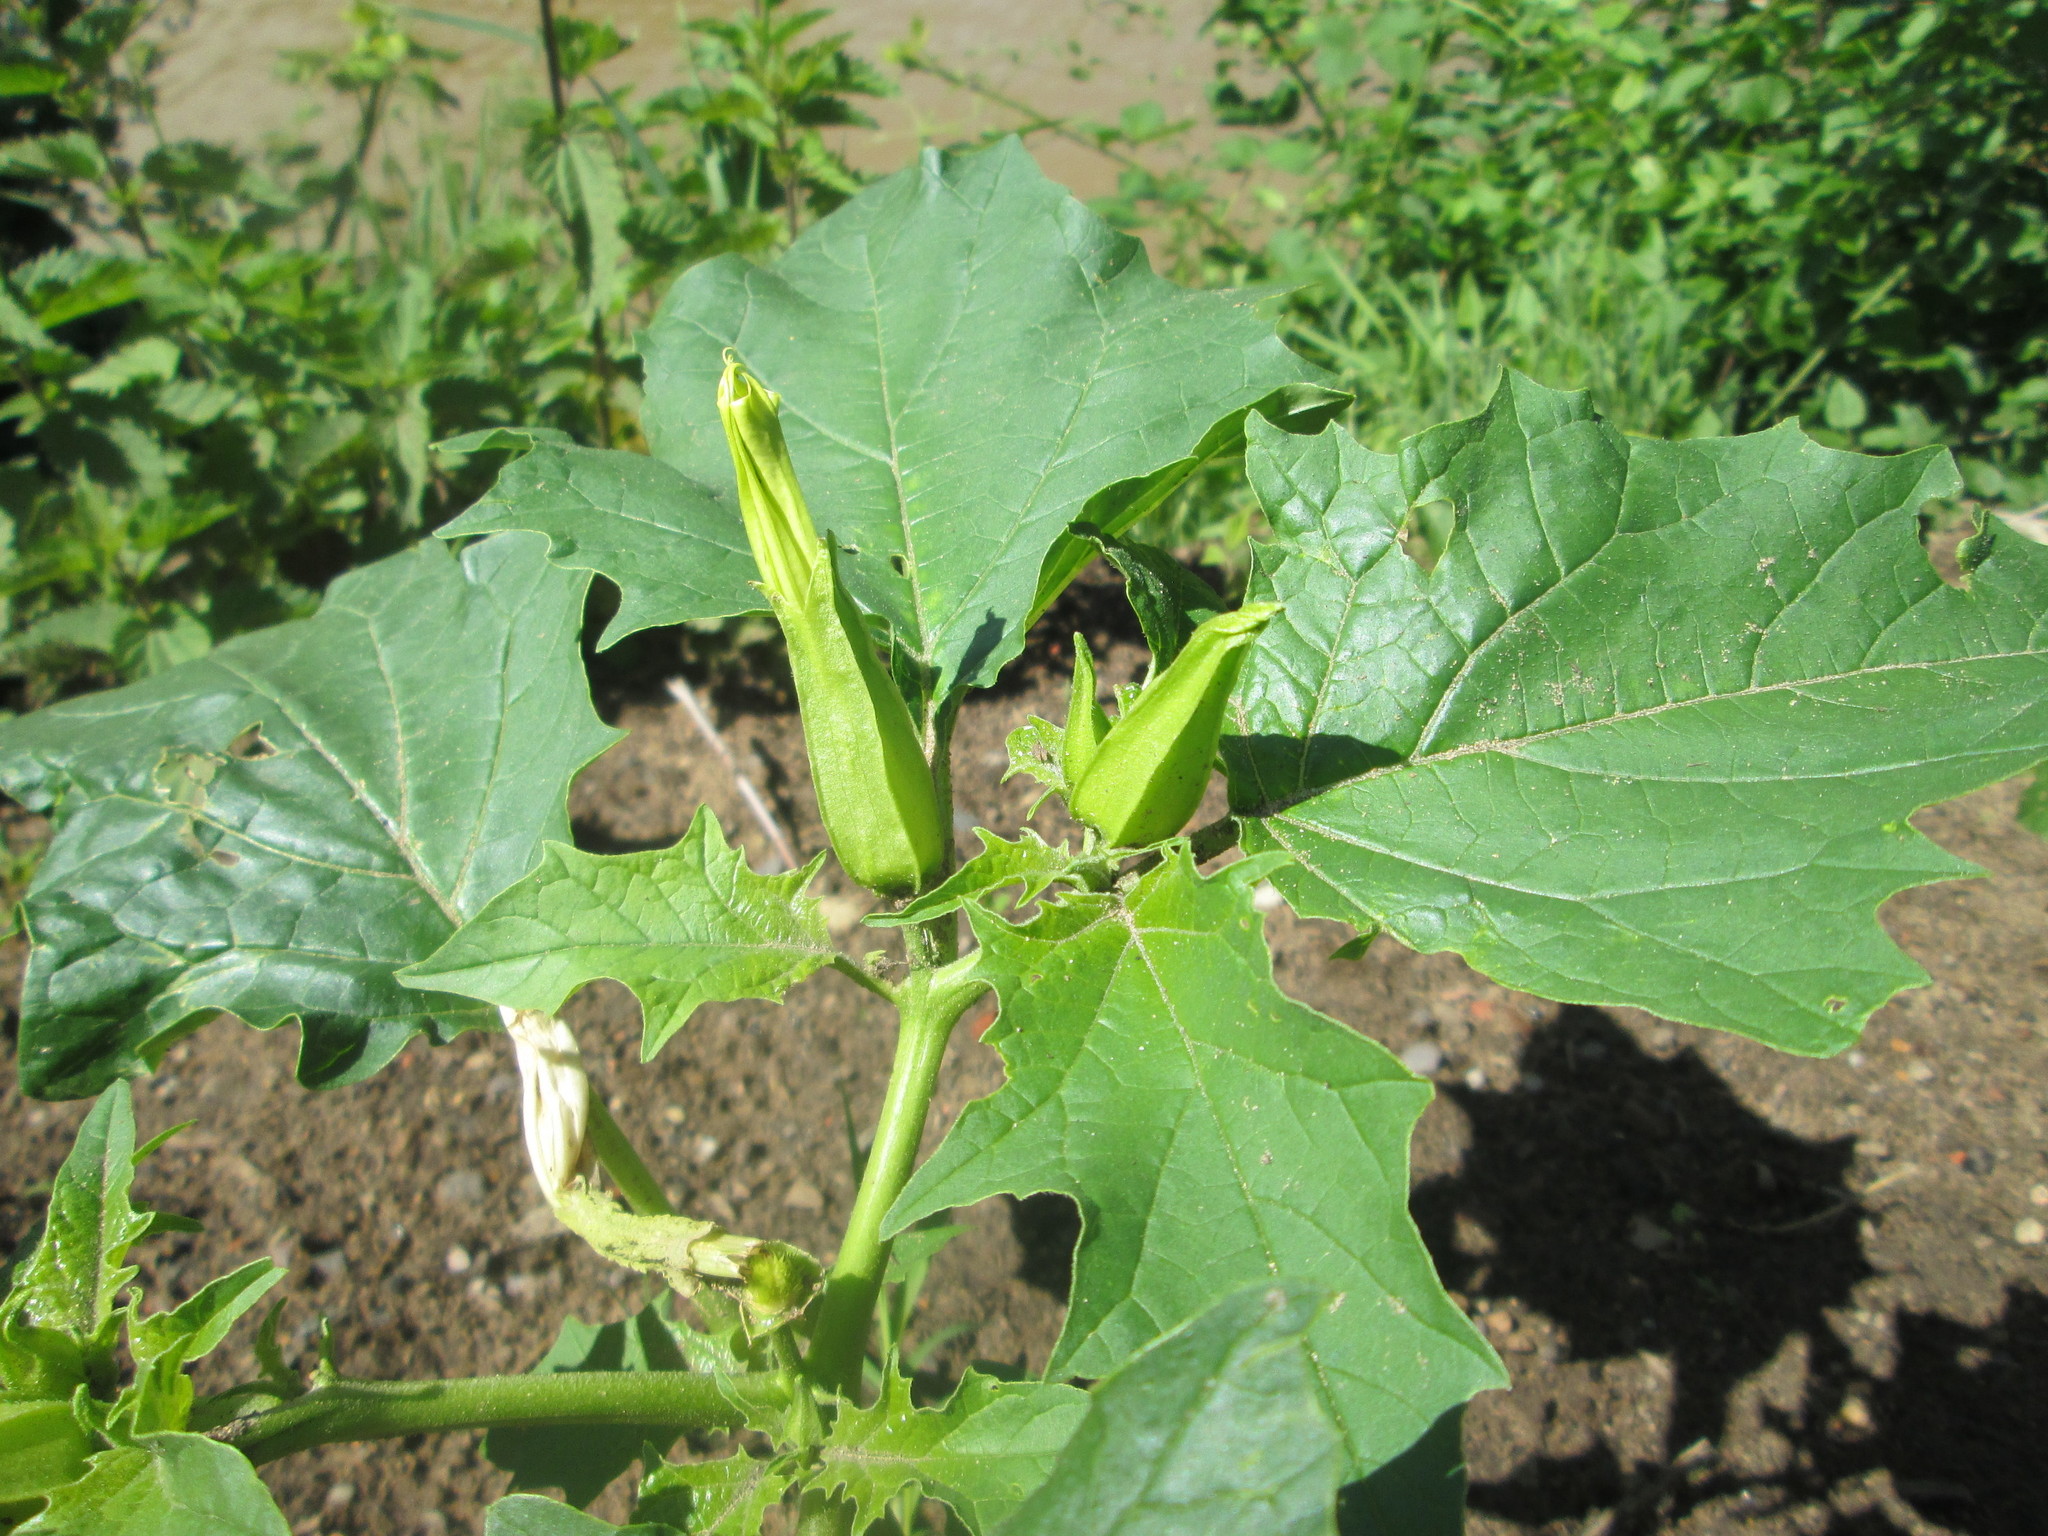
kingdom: Plantae
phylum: Tracheophyta
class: Magnoliopsida
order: Solanales
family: Solanaceae
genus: Datura
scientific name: Datura stramonium
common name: Thorn-apple
